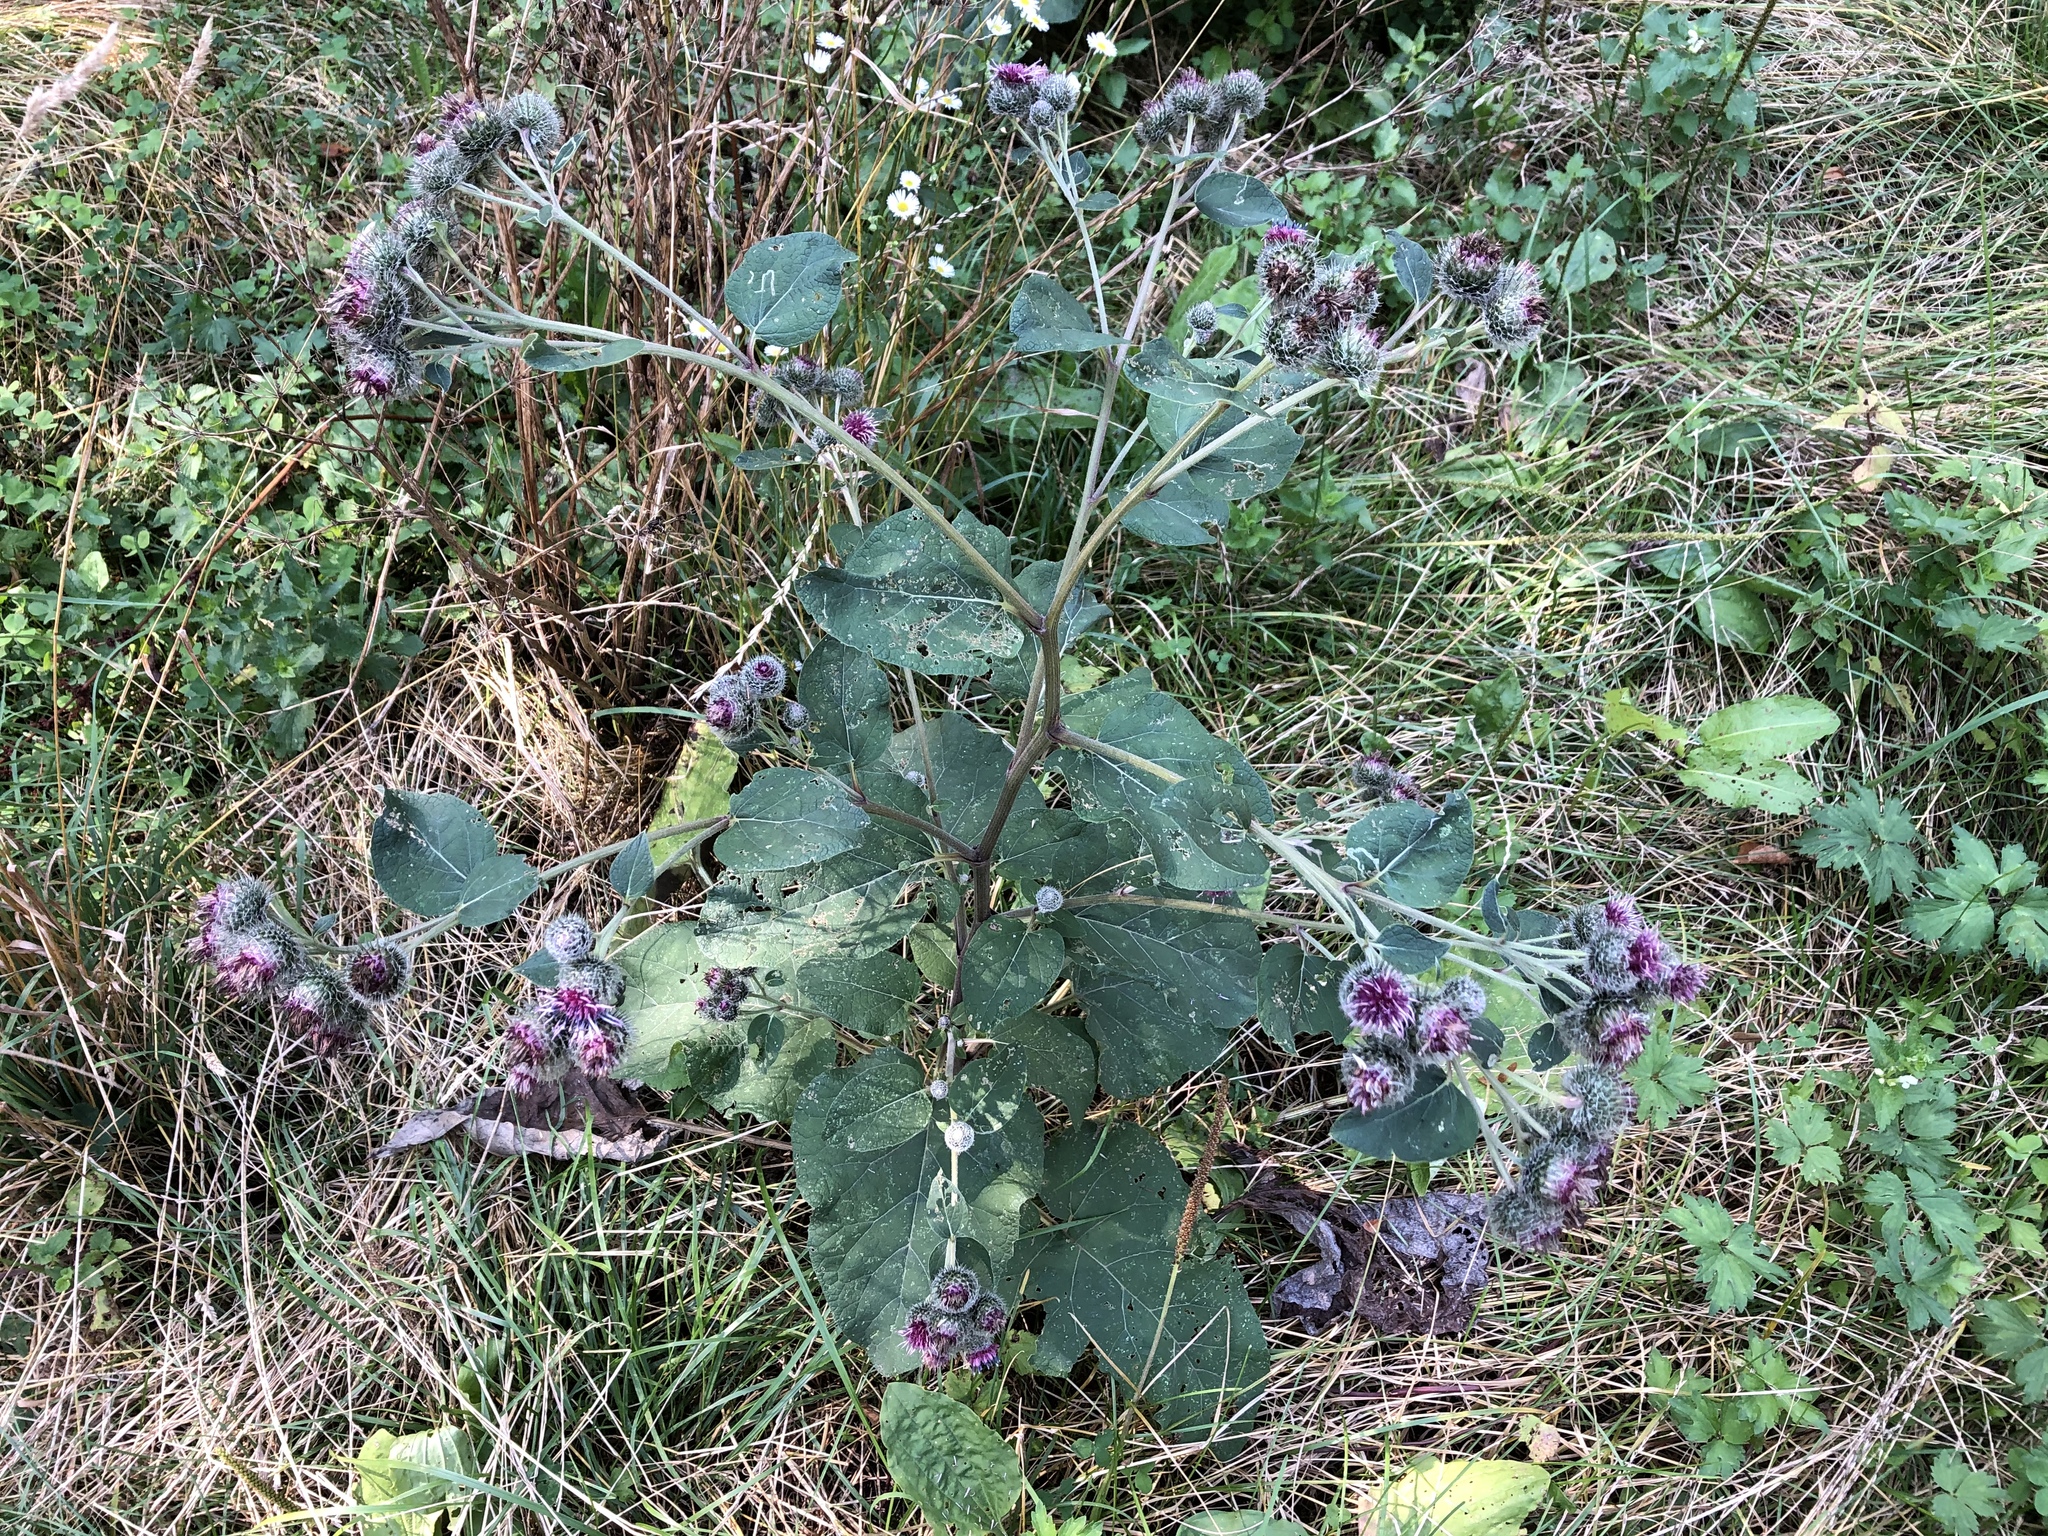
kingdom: Plantae
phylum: Tracheophyta
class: Magnoliopsida
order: Asterales
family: Asteraceae
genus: Arctium
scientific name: Arctium tomentosum
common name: Woolly burdock
